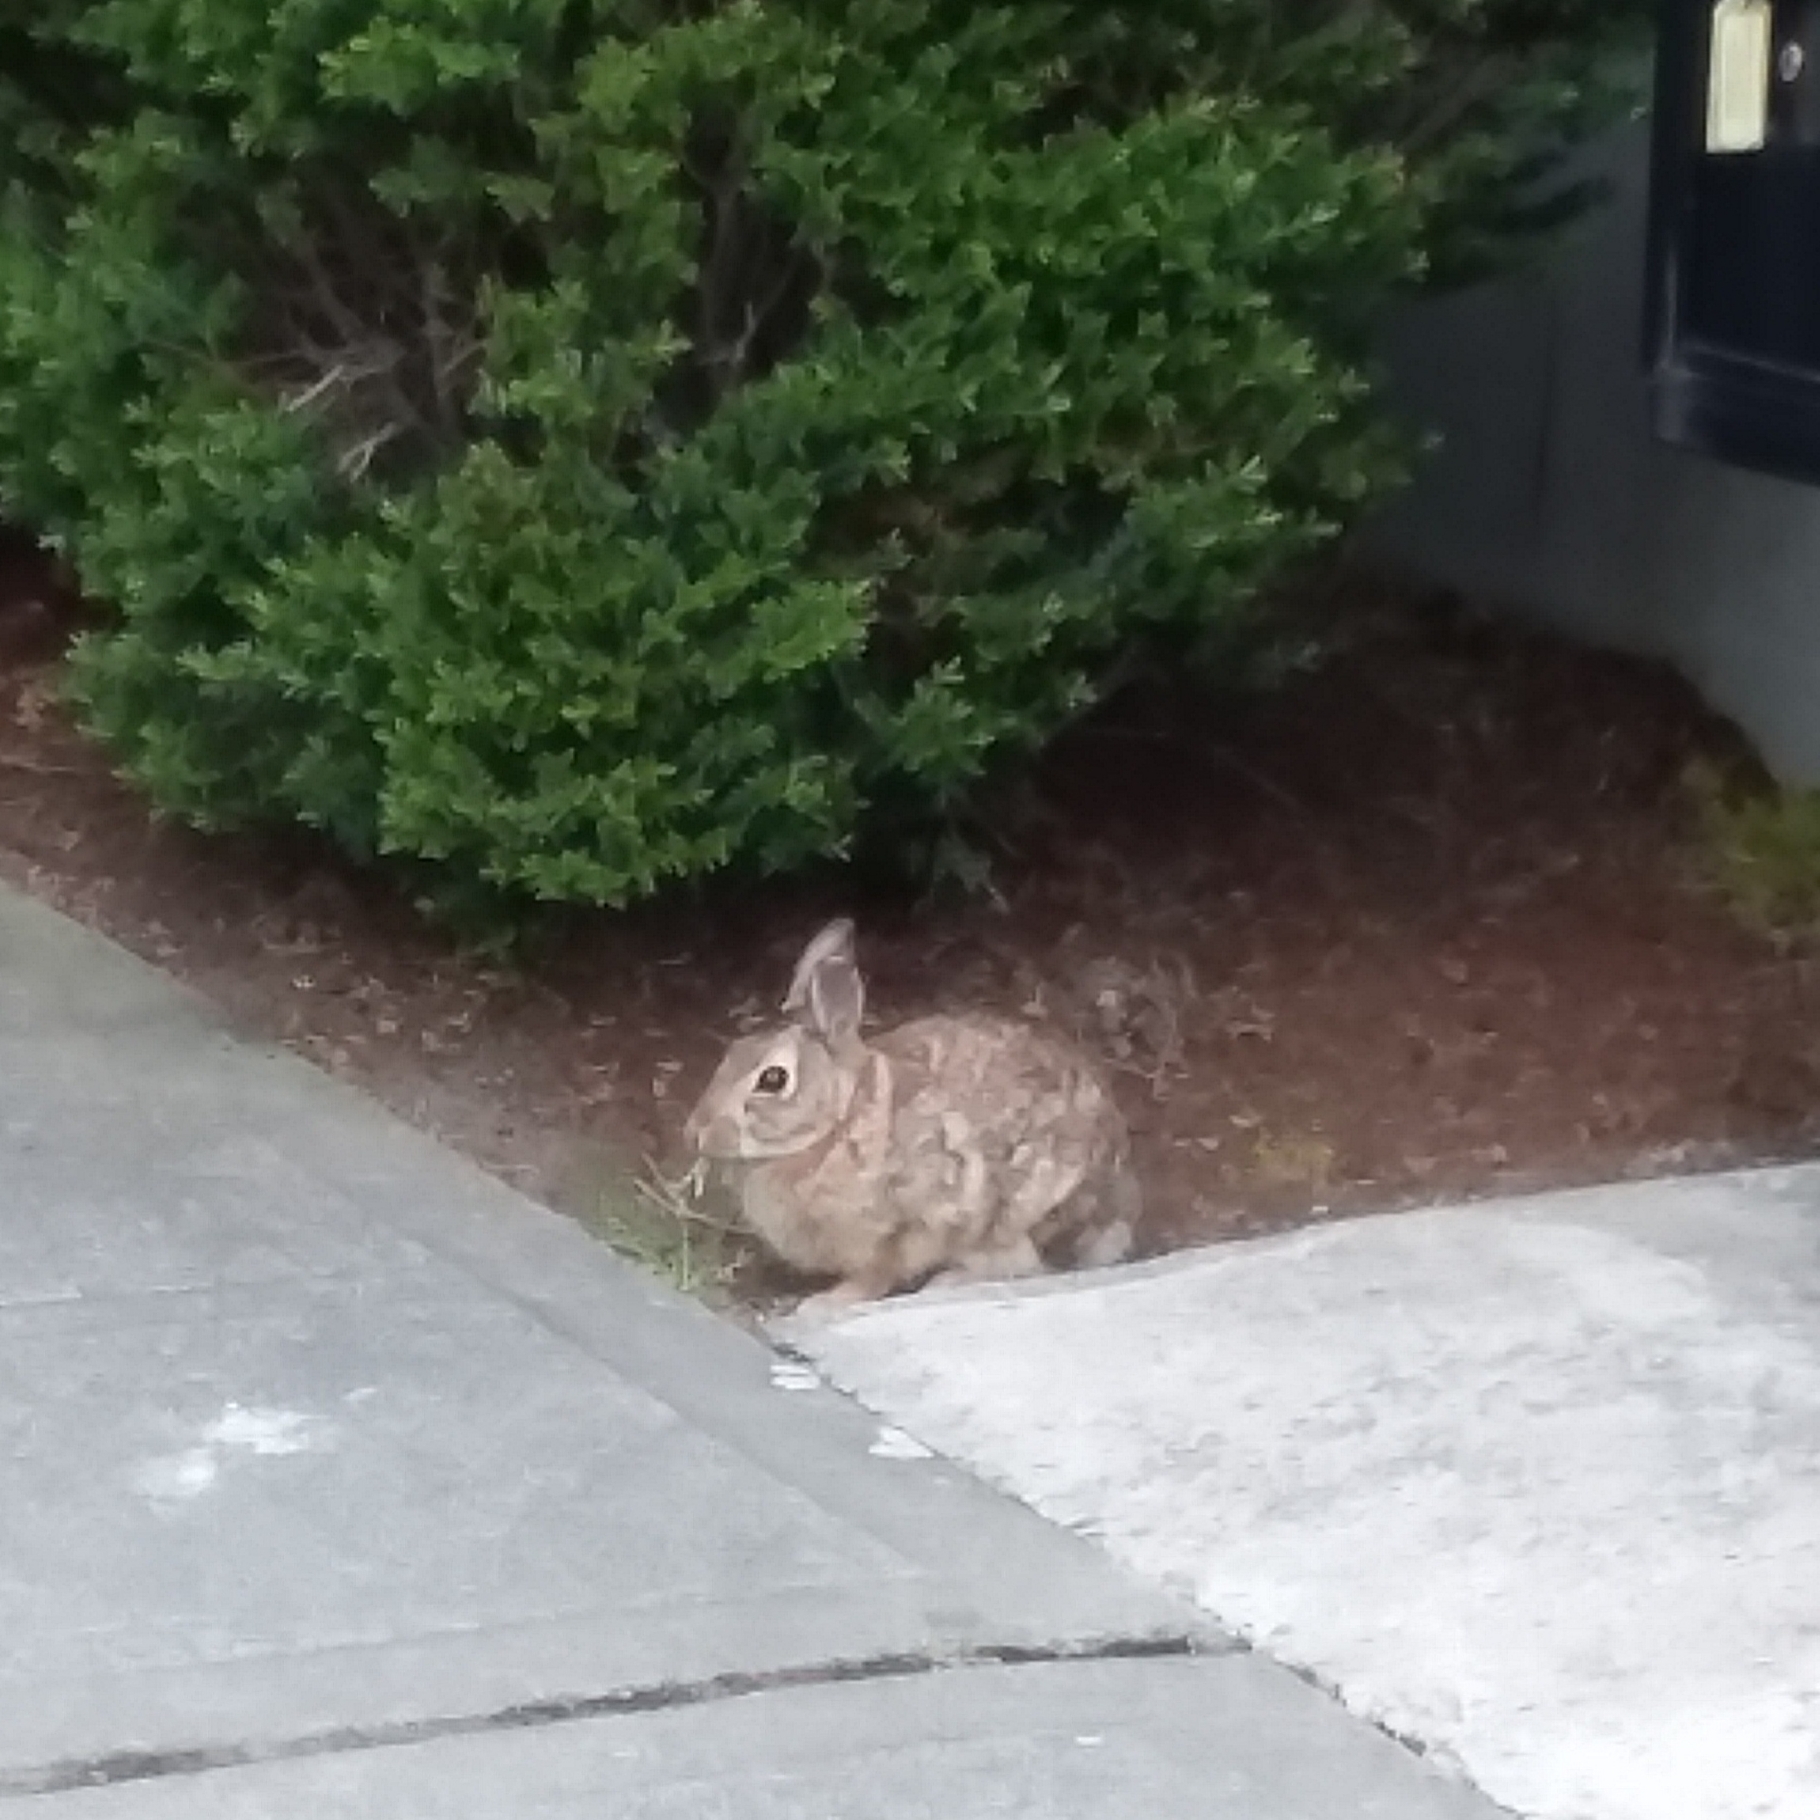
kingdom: Animalia
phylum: Chordata
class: Mammalia
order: Lagomorpha
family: Leporidae
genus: Sylvilagus
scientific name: Sylvilagus floridanus
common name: Eastern cottontail
